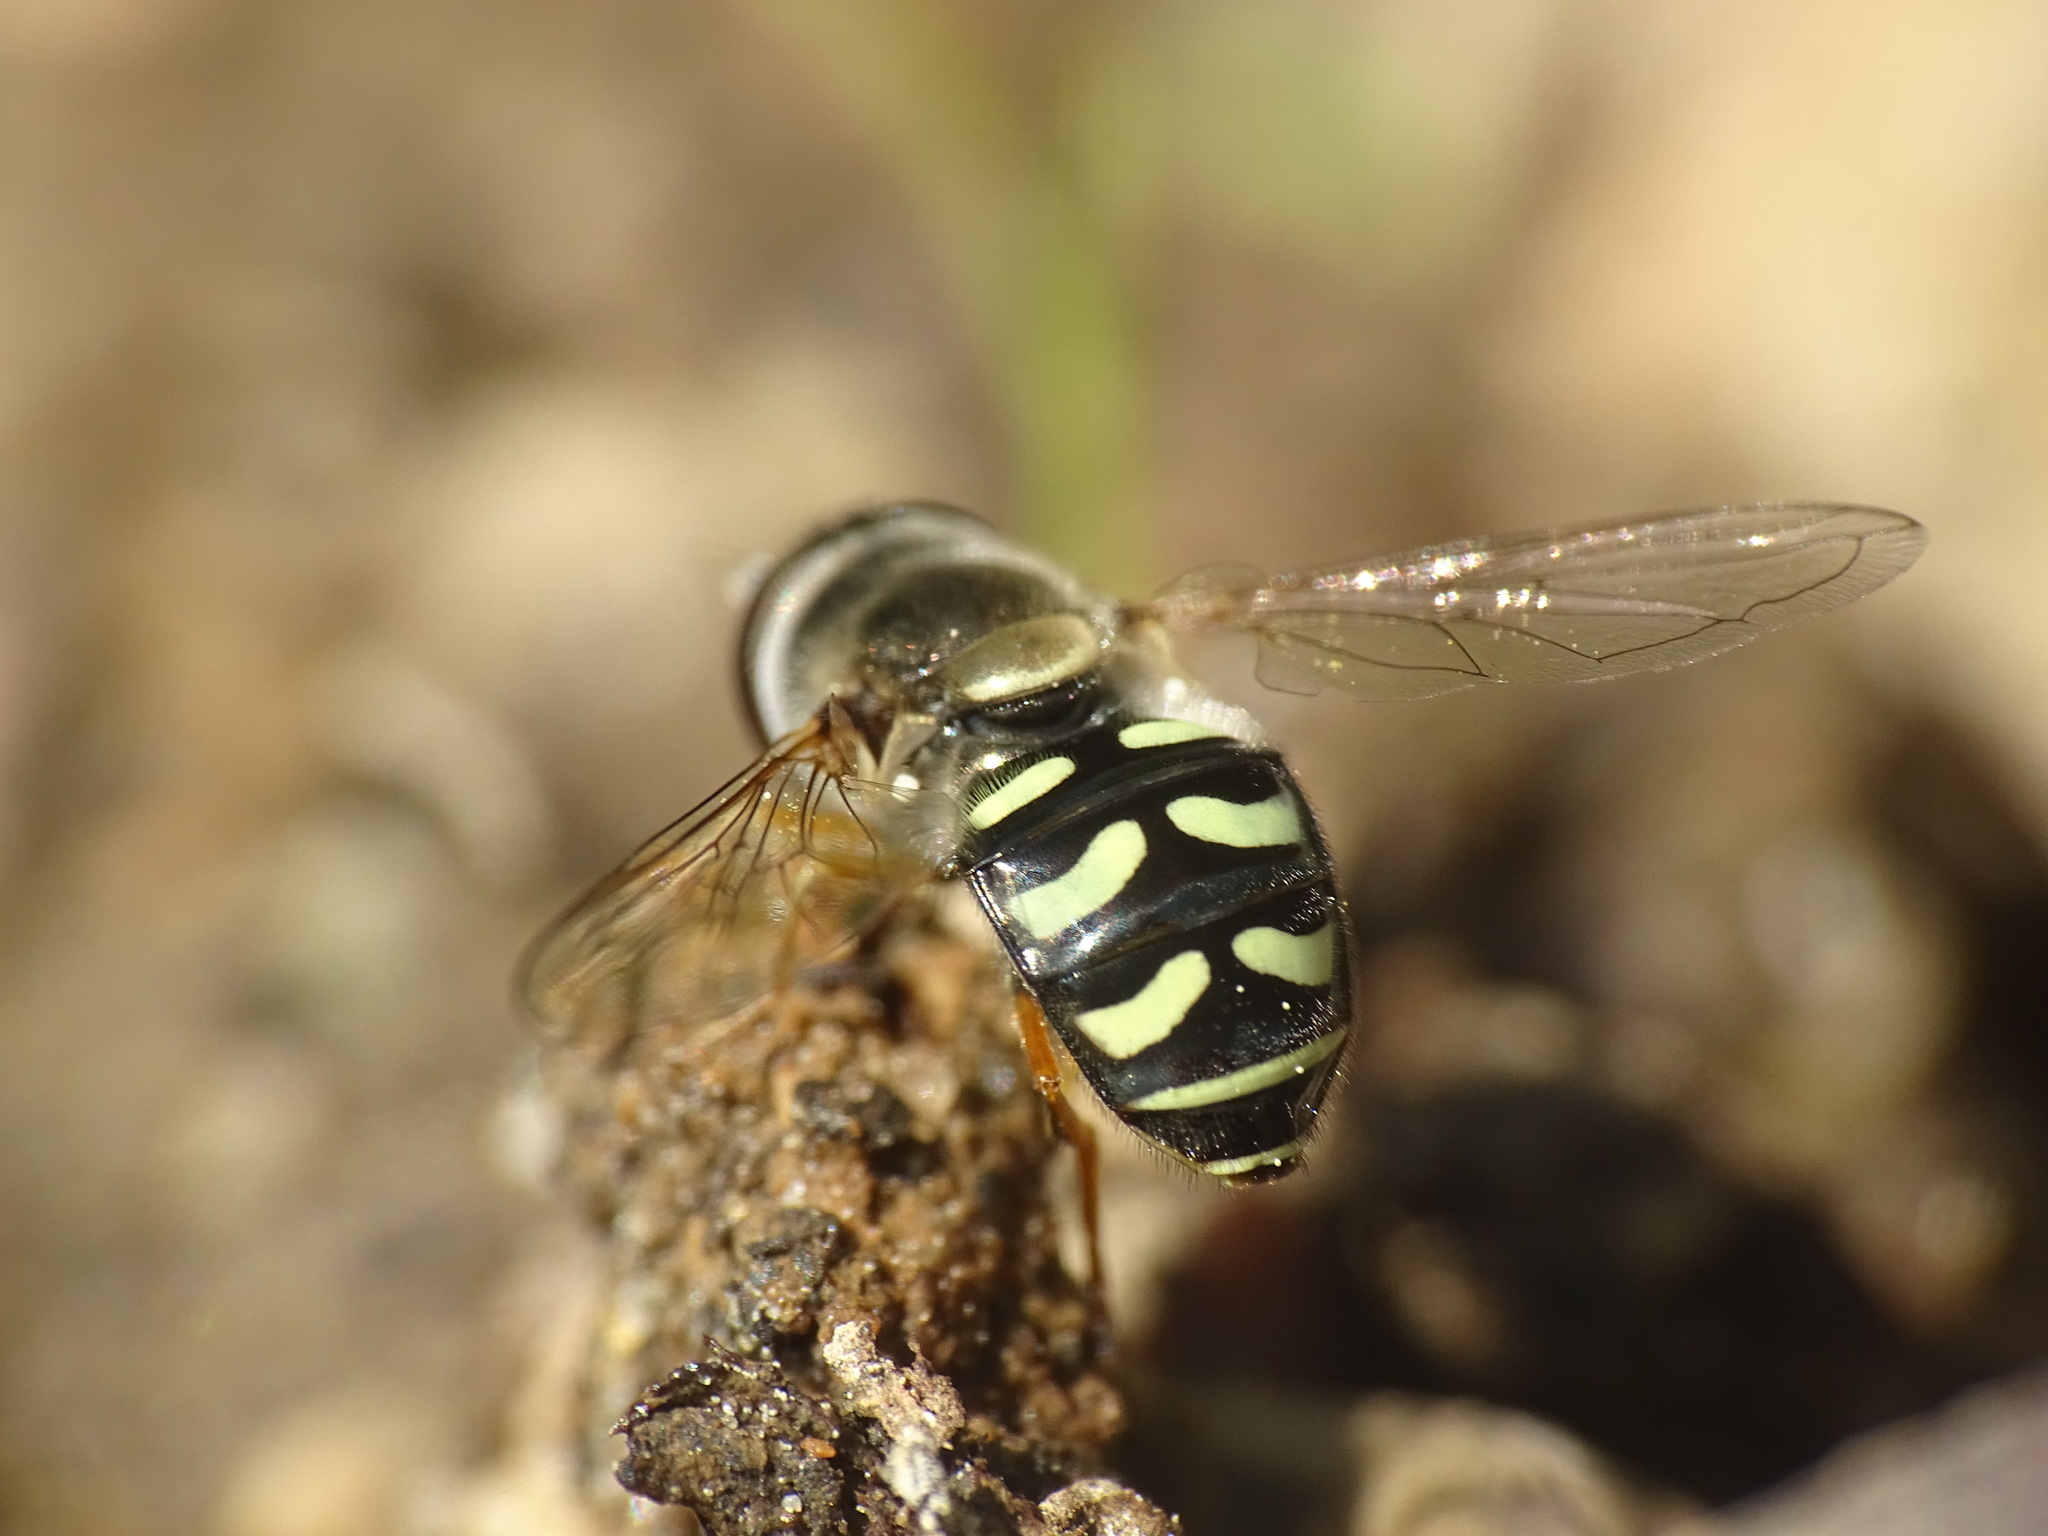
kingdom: Animalia
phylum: Arthropoda
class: Insecta
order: Diptera
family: Syrphidae
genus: Eupeodes
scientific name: Eupeodes volucris
